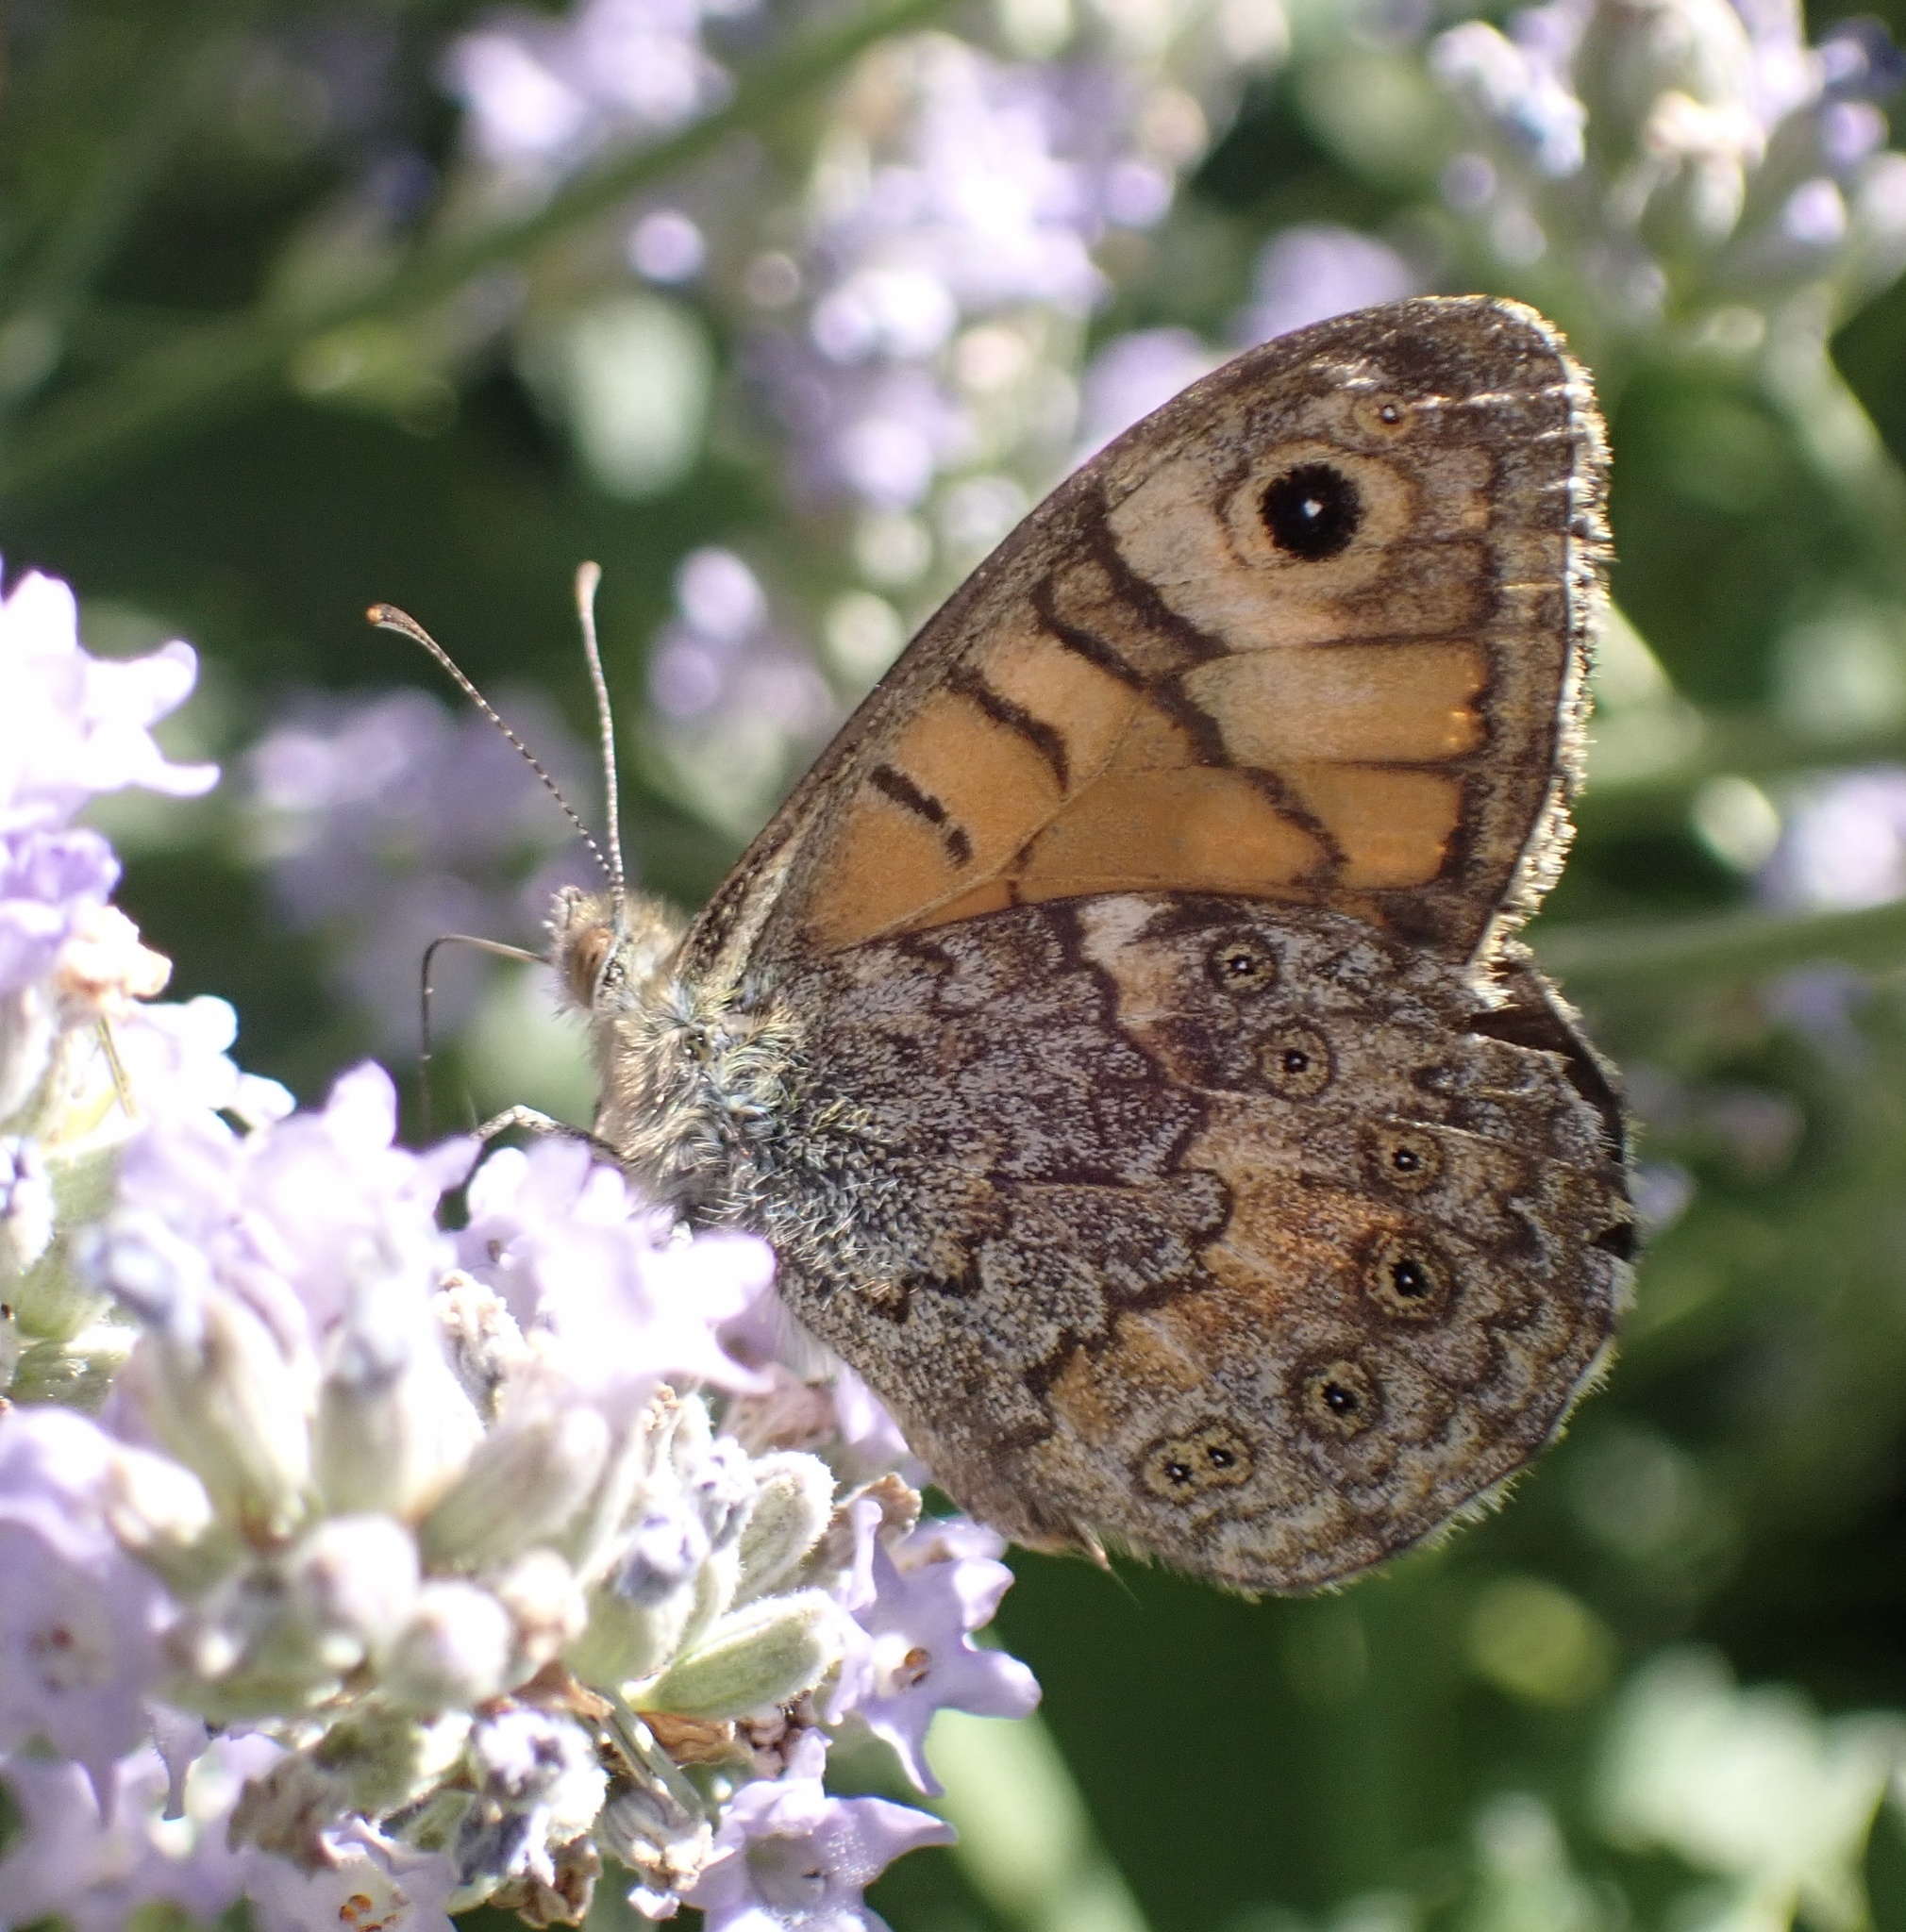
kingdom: Animalia
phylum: Arthropoda
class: Insecta
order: Lepidoptera
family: Nymphalidae
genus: Pararge
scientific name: Pararge Lasiommata megera
